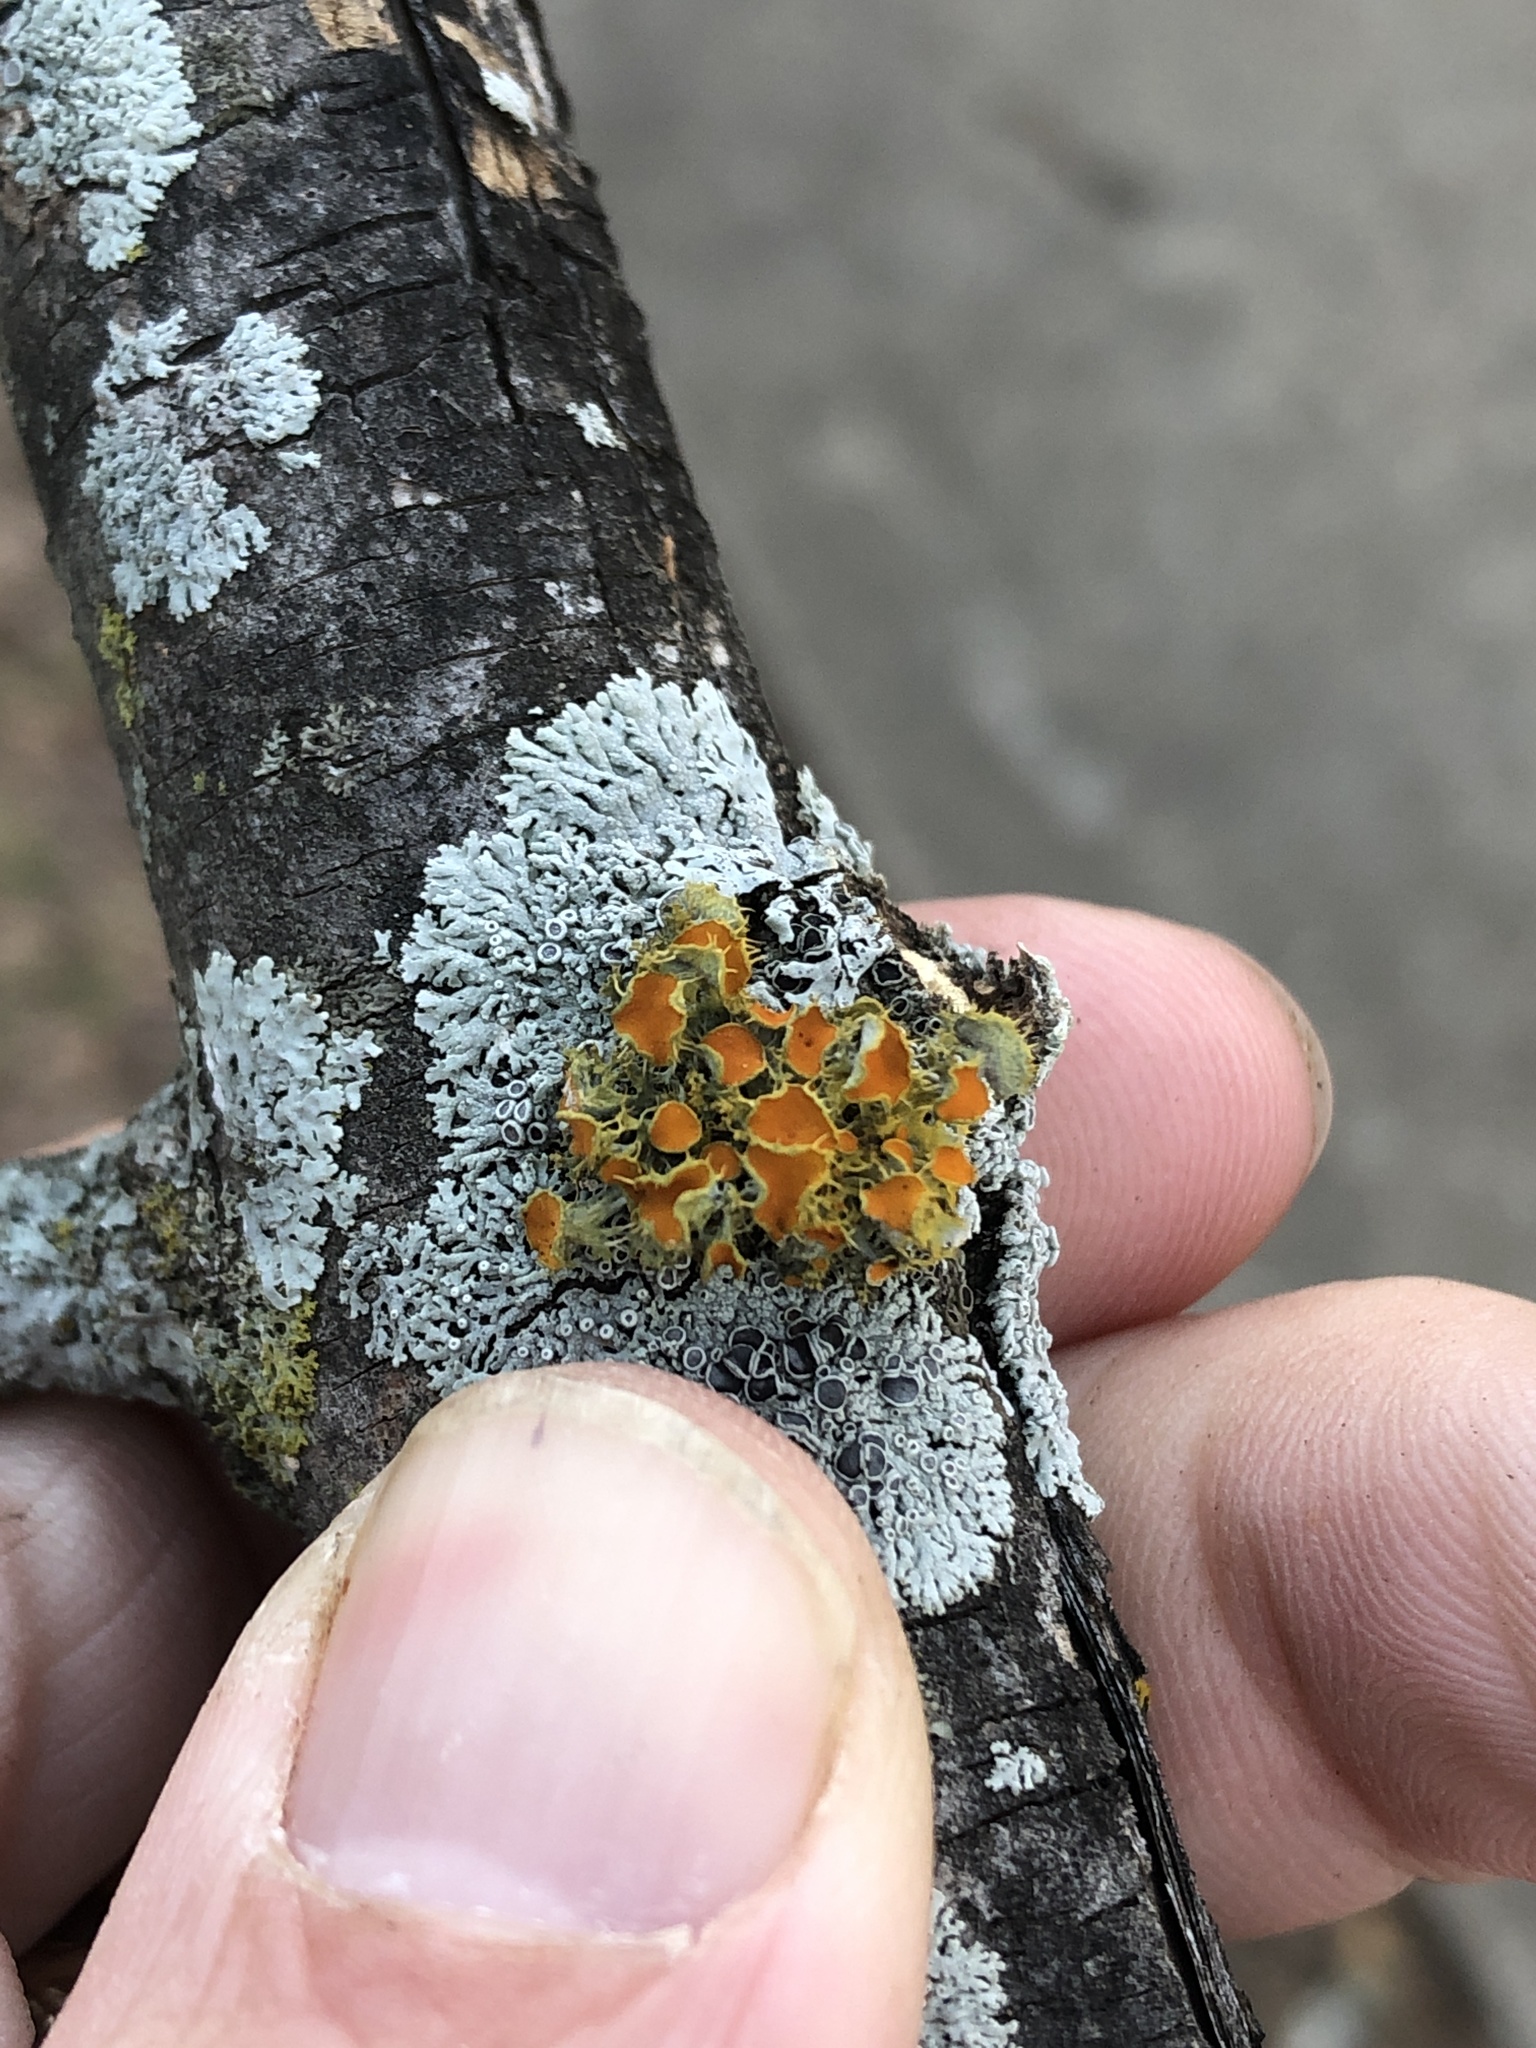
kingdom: Fungi
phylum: Ascomycota
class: Lecanoromycetes
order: Teloschistales
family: Teloschistaceae
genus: Niorma
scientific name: Niorma chrysophthalma
